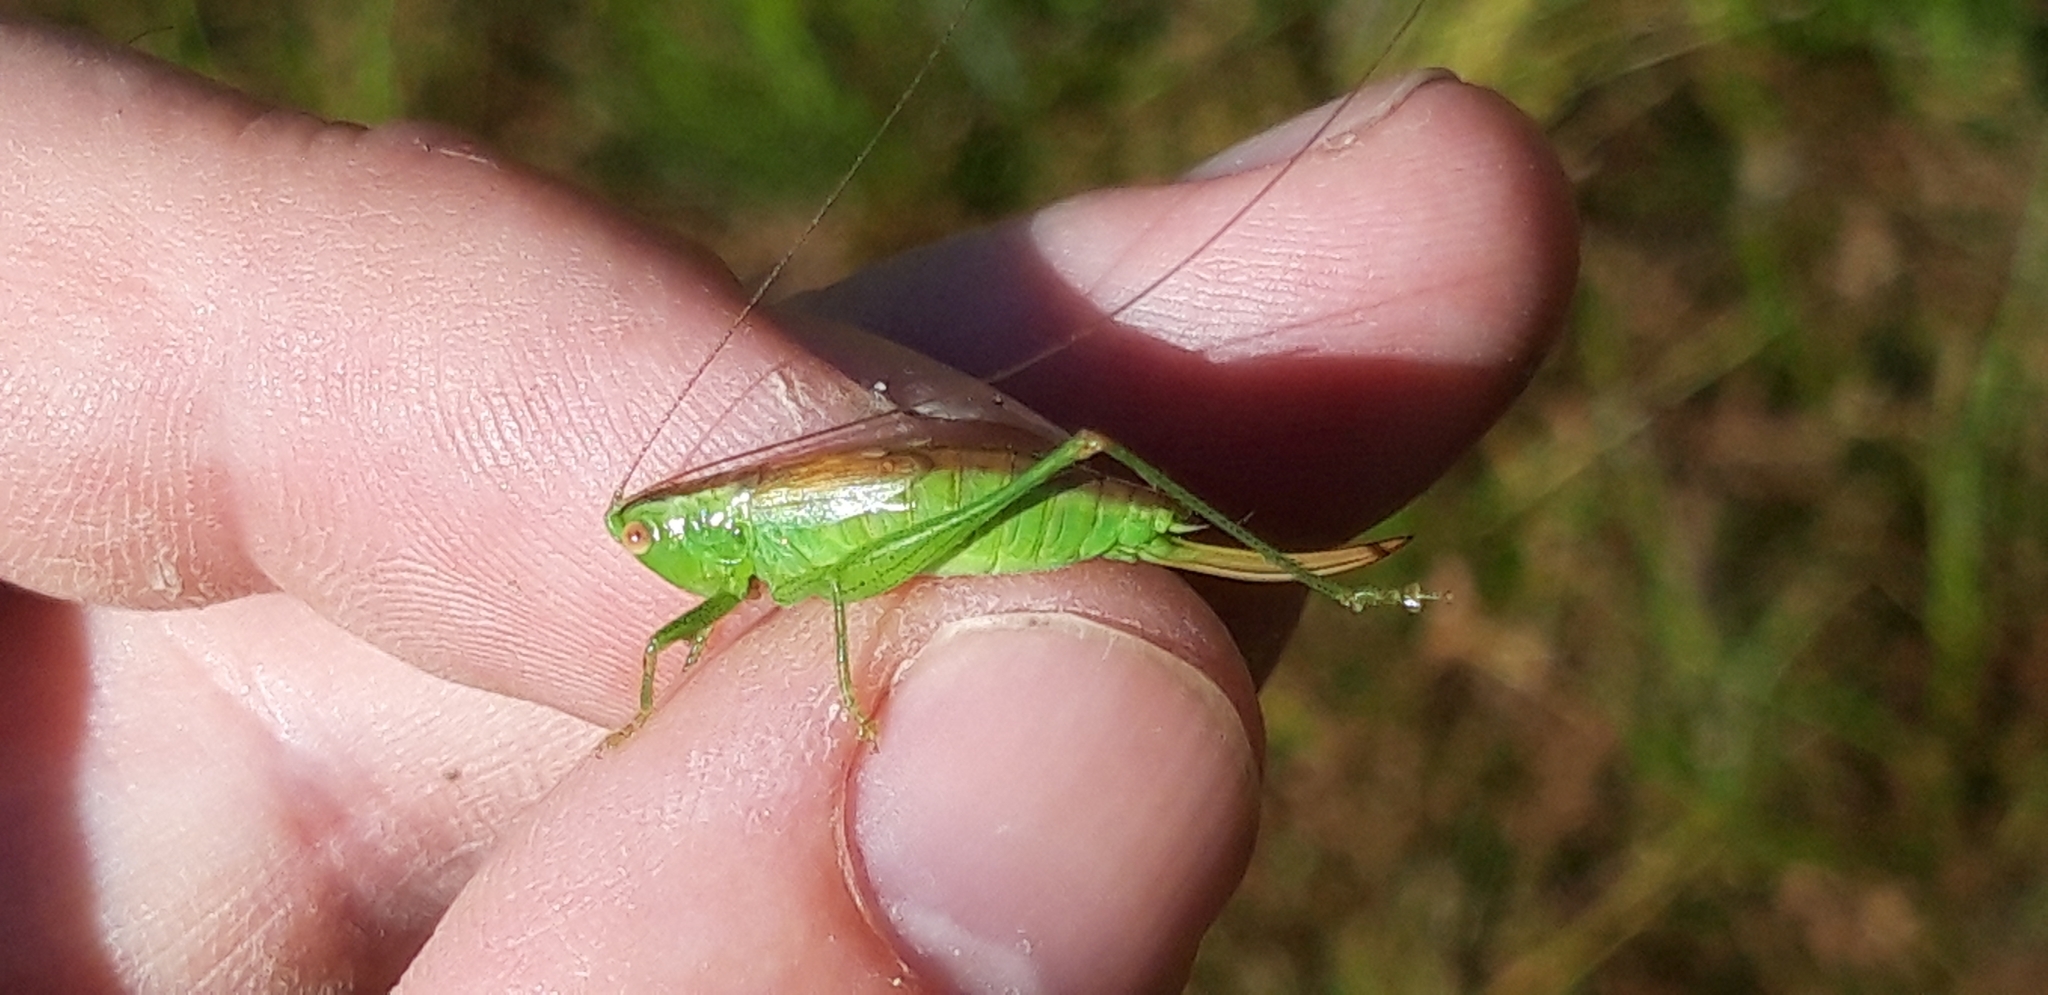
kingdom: Animalia
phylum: Arthropoda
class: Insecta
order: Orthoptera
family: Tettigoniidae
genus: Conocephalus
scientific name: Conocephalus dorsalis
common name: Short-winged conehead
